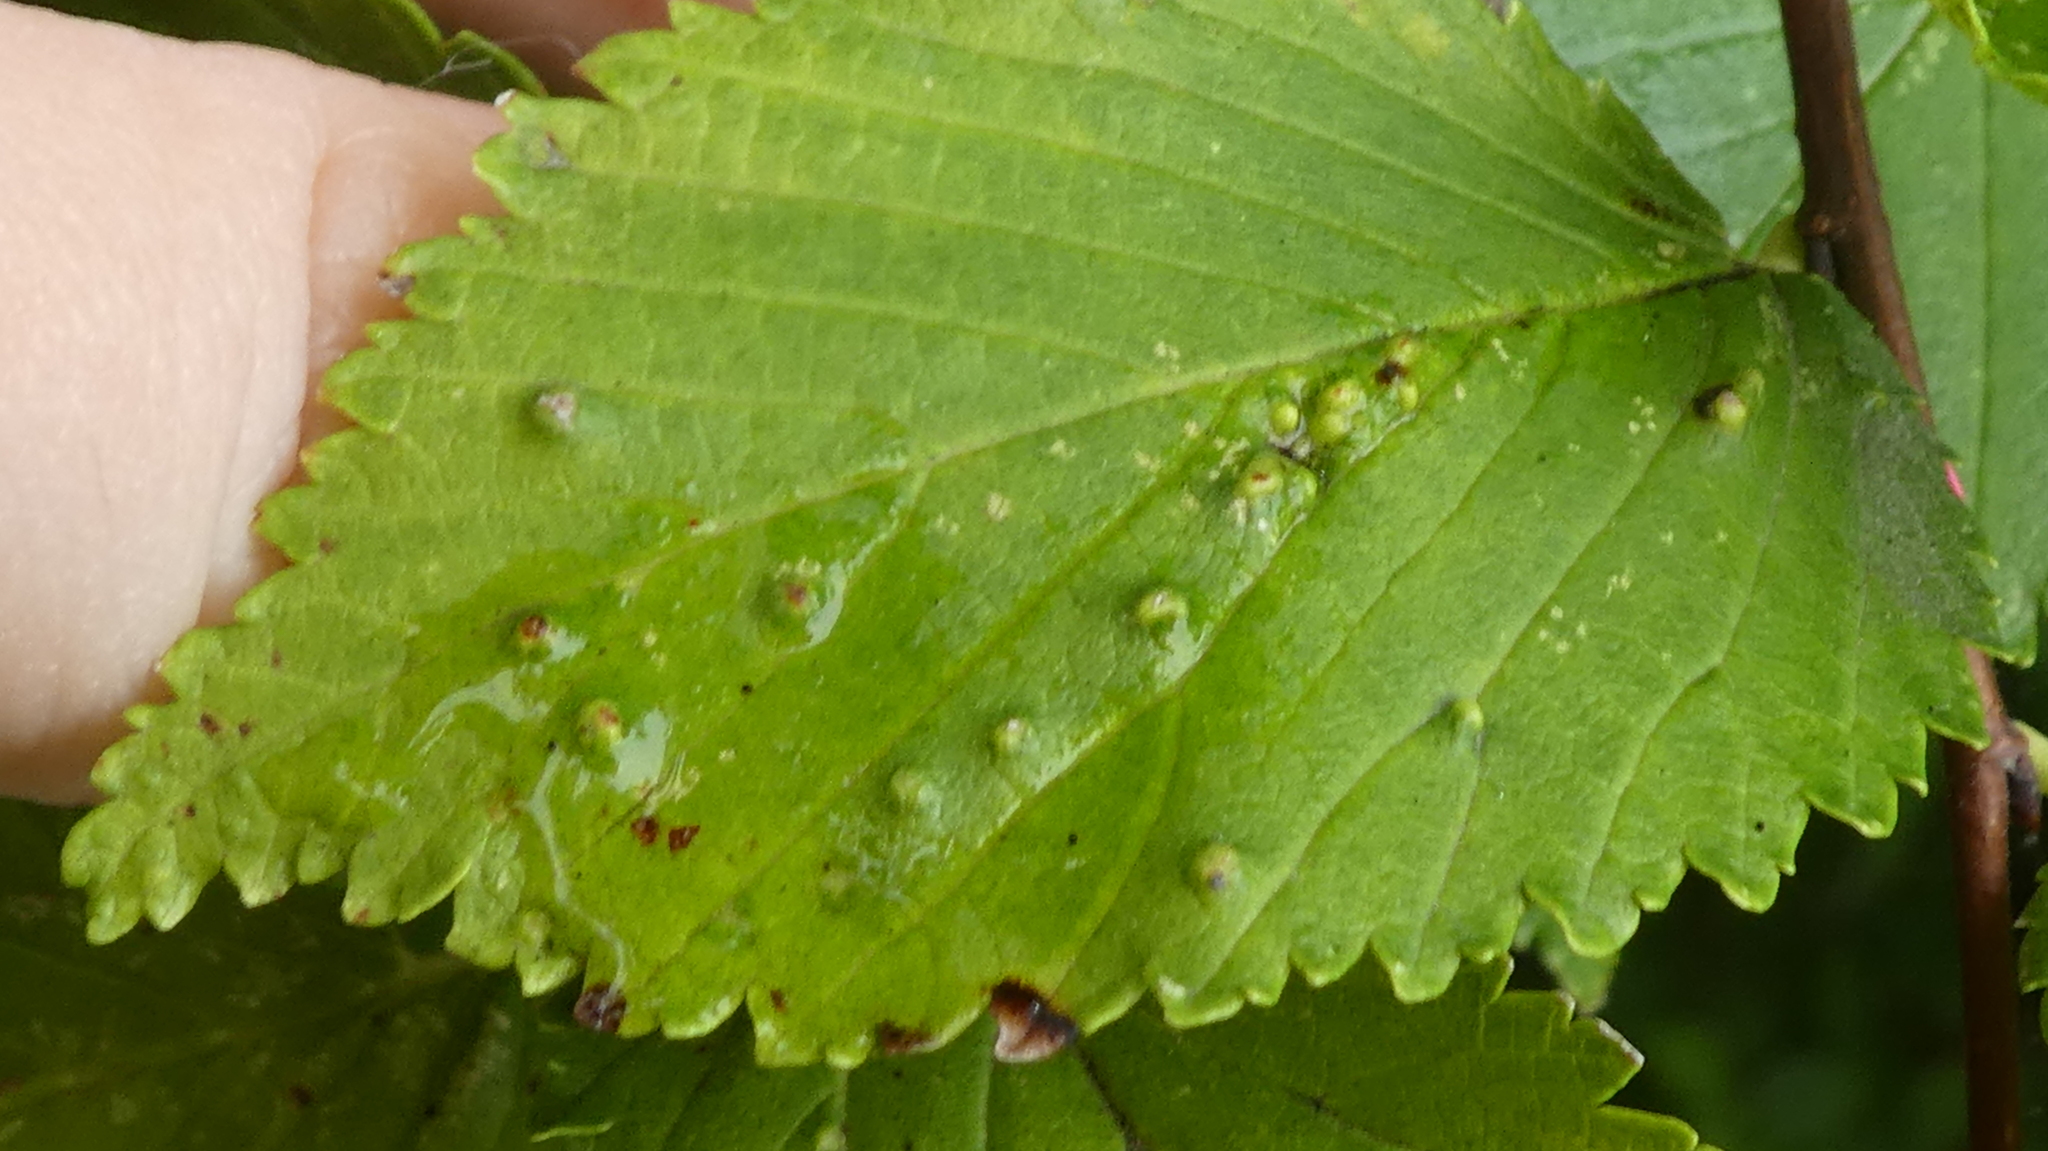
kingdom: Animalia
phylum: Arthropoda
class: Arachnida
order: Trombidiformes
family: Eriophyidae
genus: Aceria
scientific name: Aceria brevipunctata
